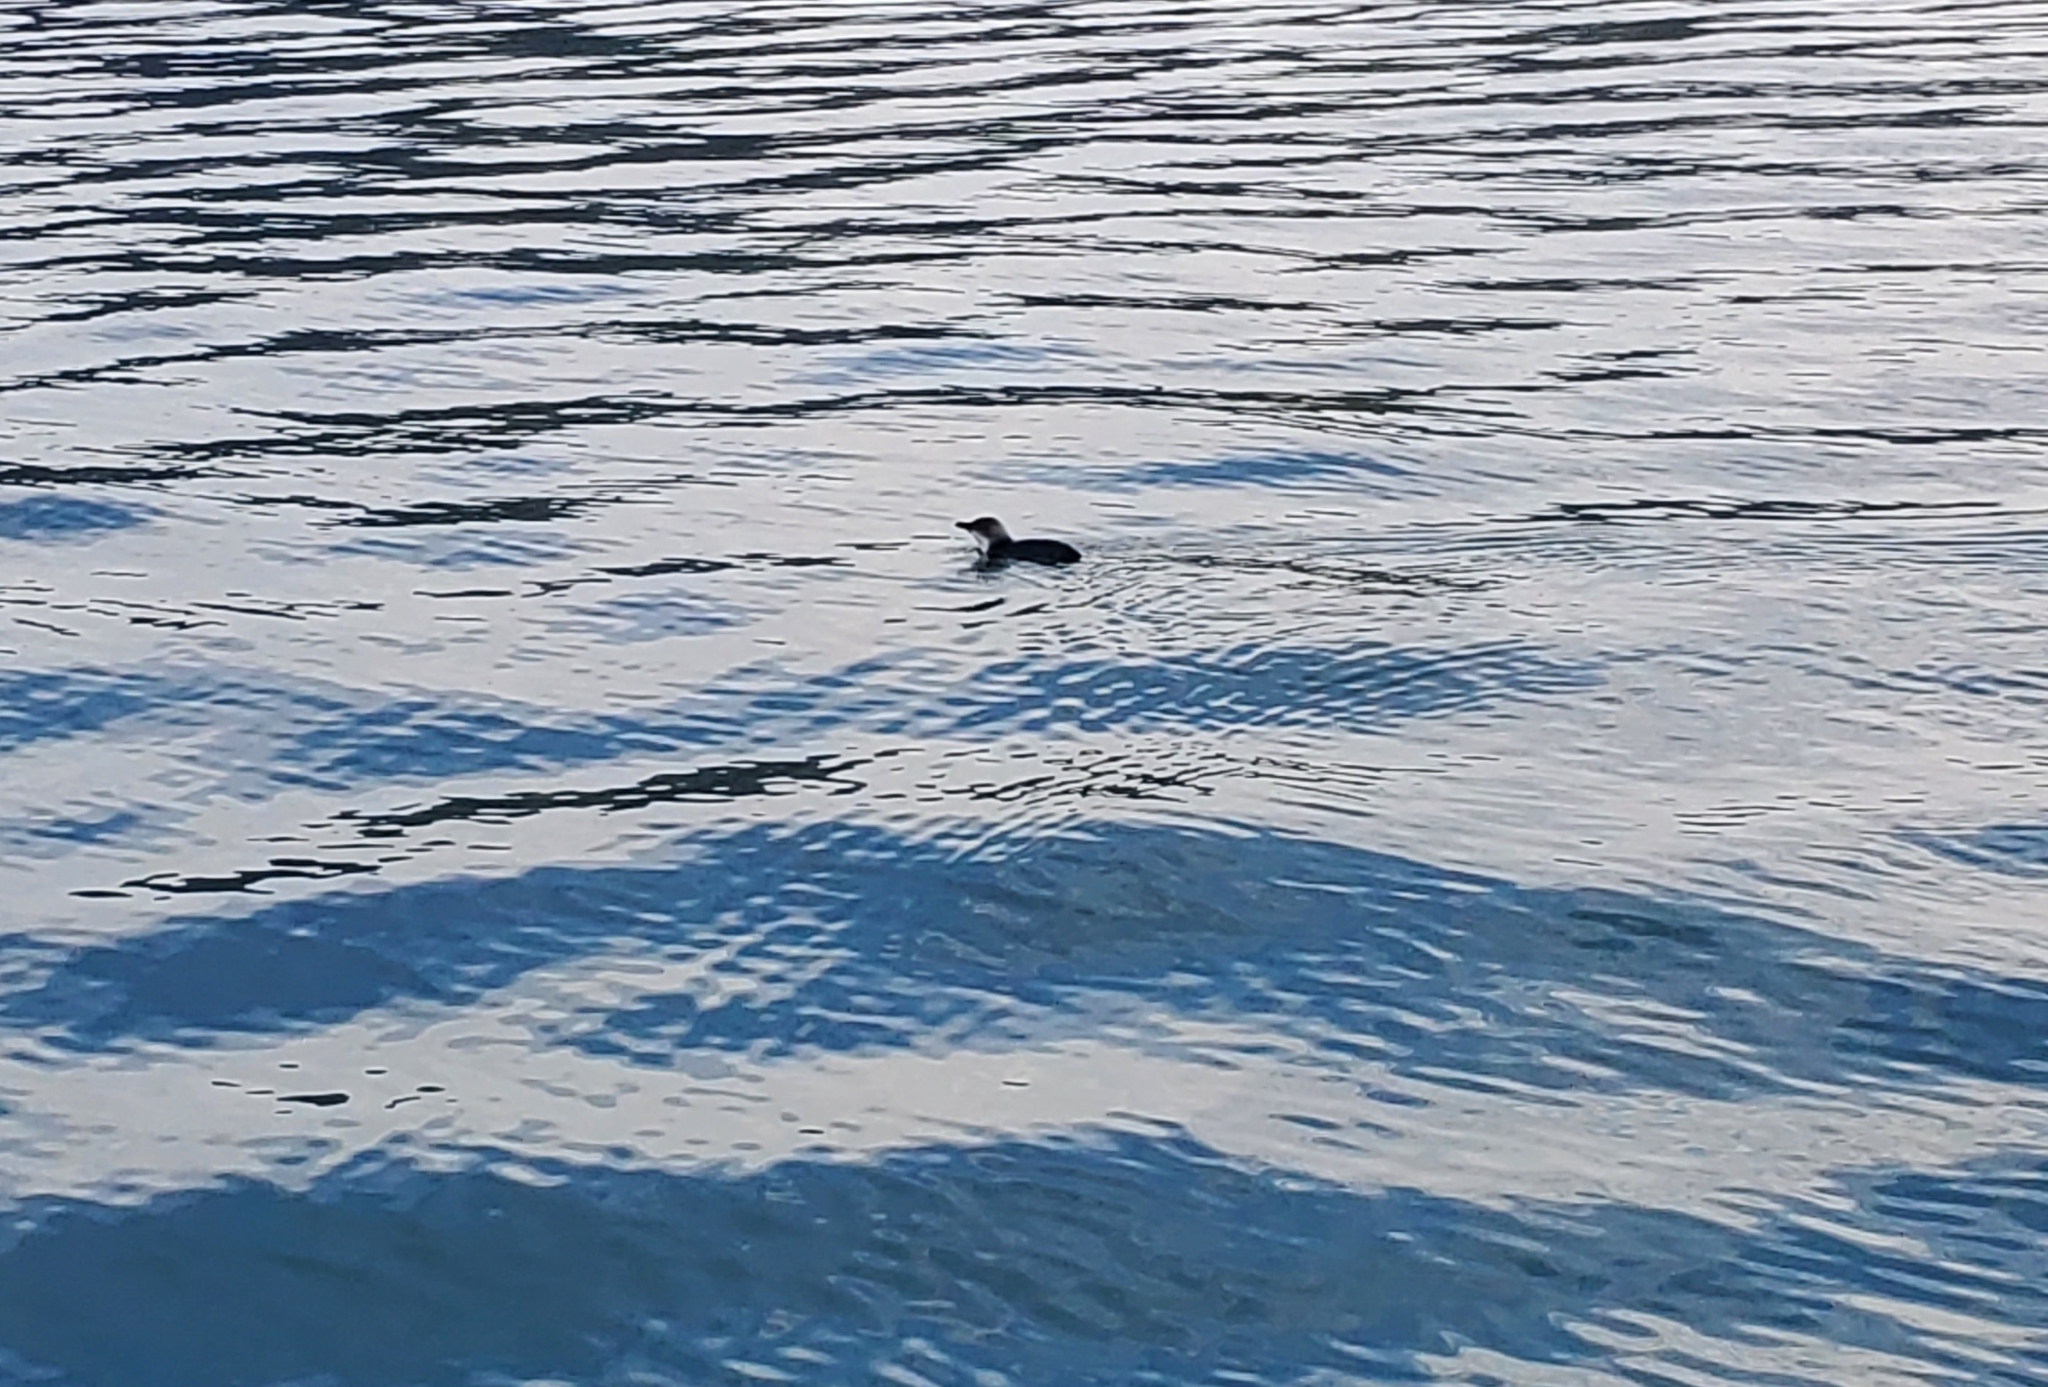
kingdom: Animalia
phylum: Chordata
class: Aves
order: Sphenisciformes
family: Spheniscidae
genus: Eudyptula
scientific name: Eudyptula minor
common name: Little penguin
